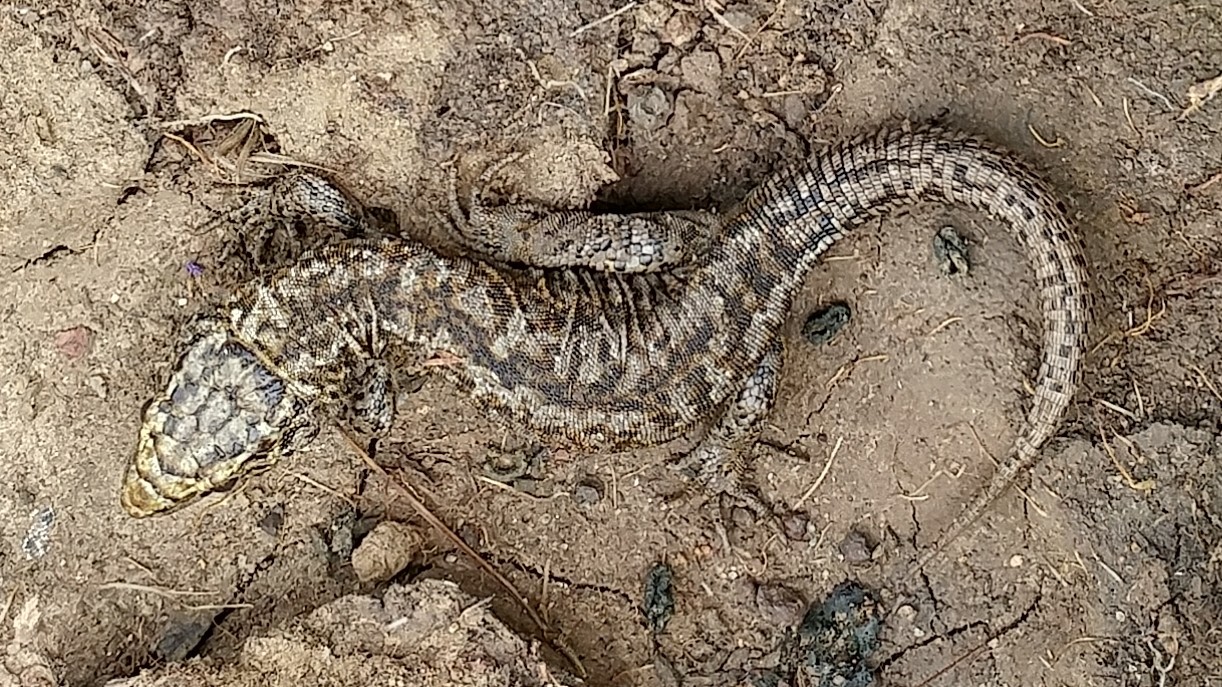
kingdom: Animalia
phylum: Chordata
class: Squamata
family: Xantusiidae
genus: Xantusia
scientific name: Xantusia riversiana
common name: Island night lizard
